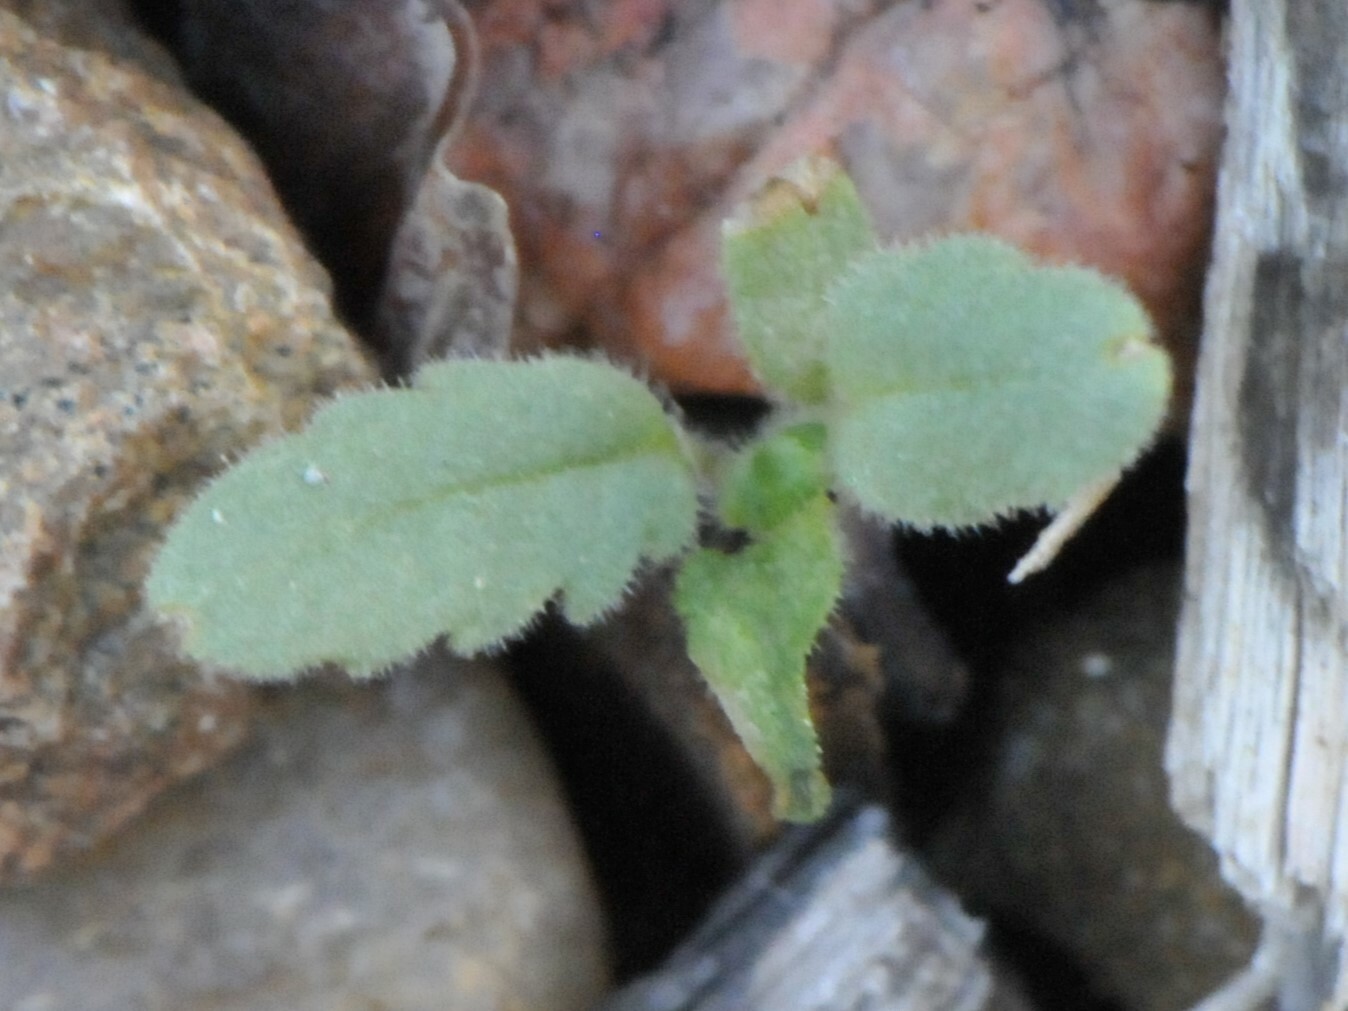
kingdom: Plantae
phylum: Tracheophyta
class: Magnoliopsida
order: Boraginales
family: Hydrophyllaceae
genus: Phacelia
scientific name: Phacelia integrifolia
